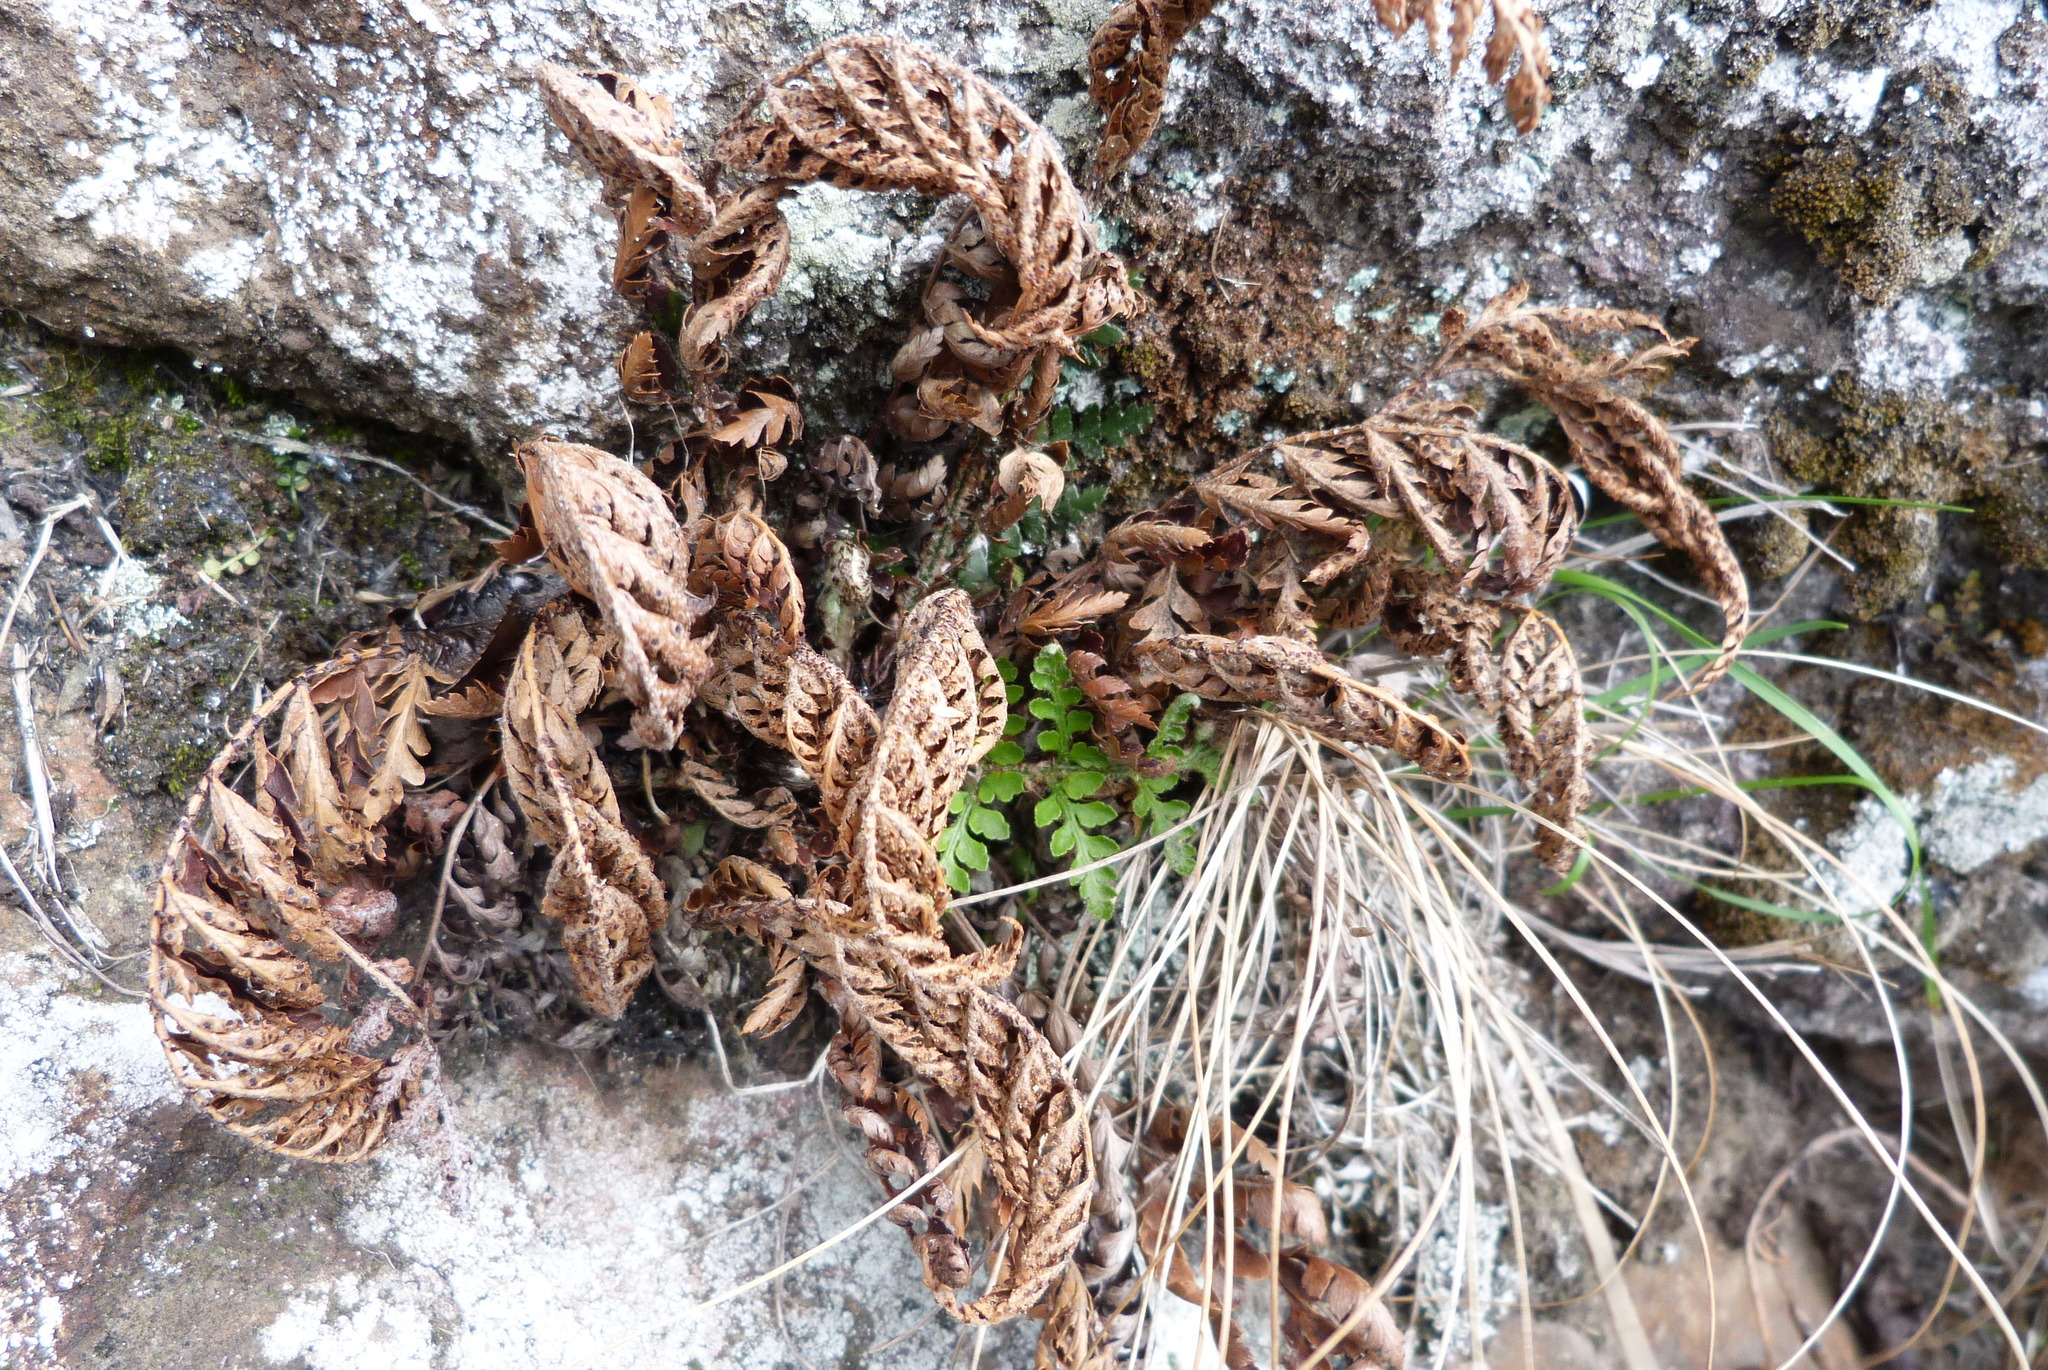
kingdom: Plantae
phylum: Tracheophyta
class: Polypodiopsida
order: Polypodiales
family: Dryopteridaceae
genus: Polystichum
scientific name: Polystichum oculatum
